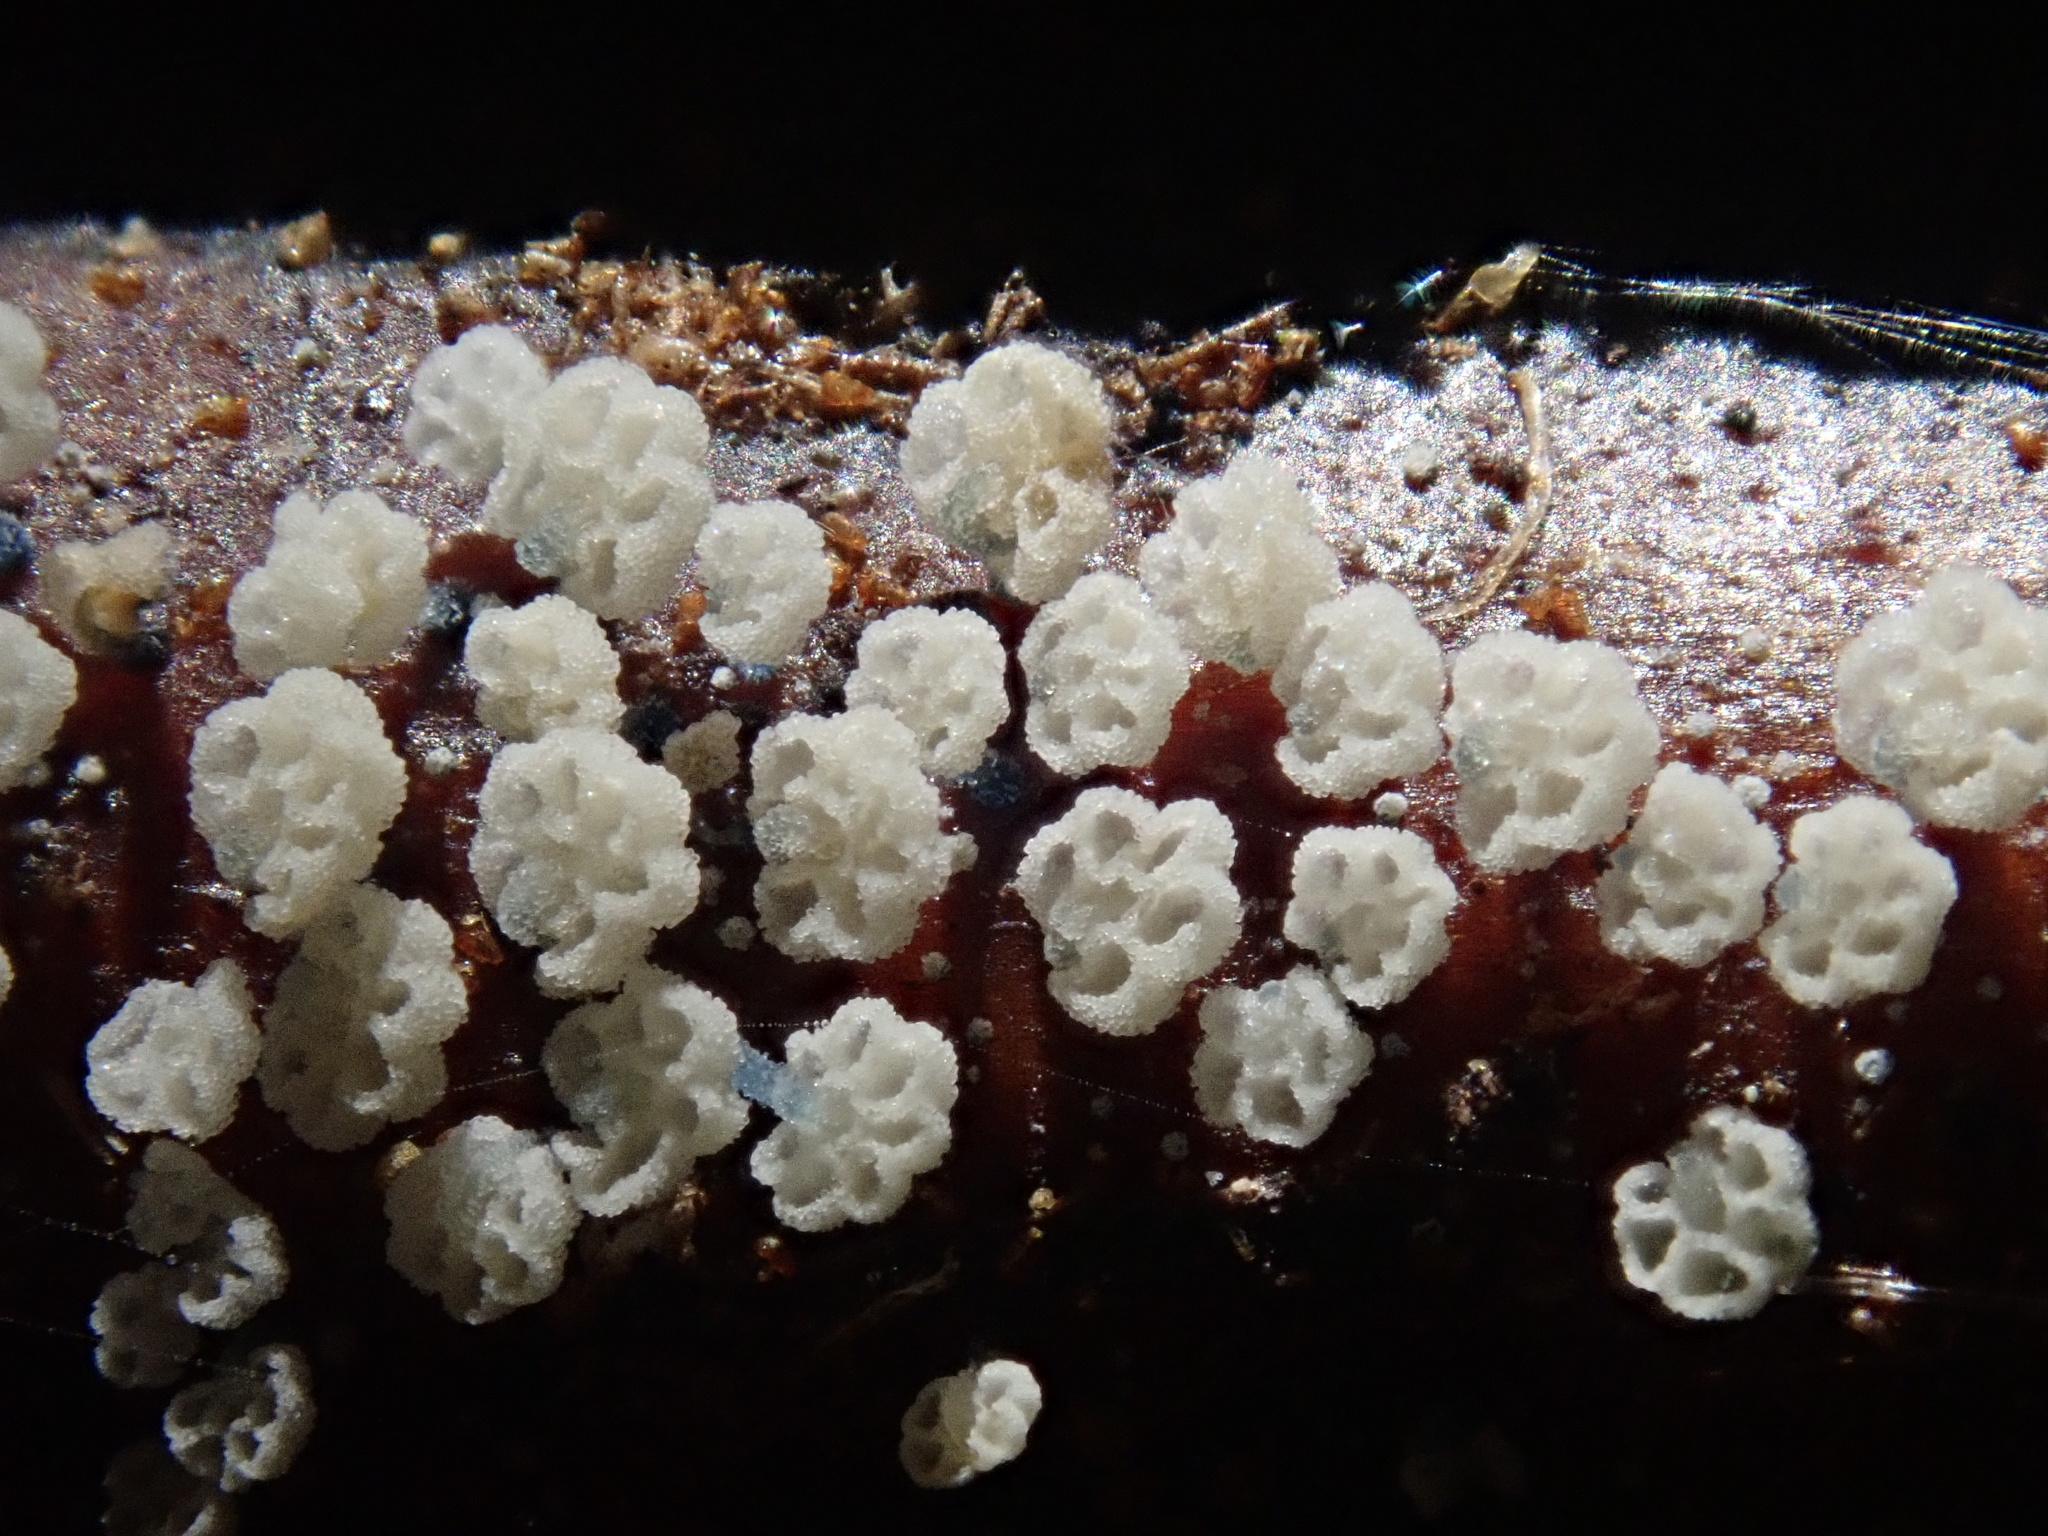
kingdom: Fungi
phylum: Basidiomycota
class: Agaricomycetes
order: Agaricales
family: Mycenaceae
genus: Mycena
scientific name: Mycena lazulina
